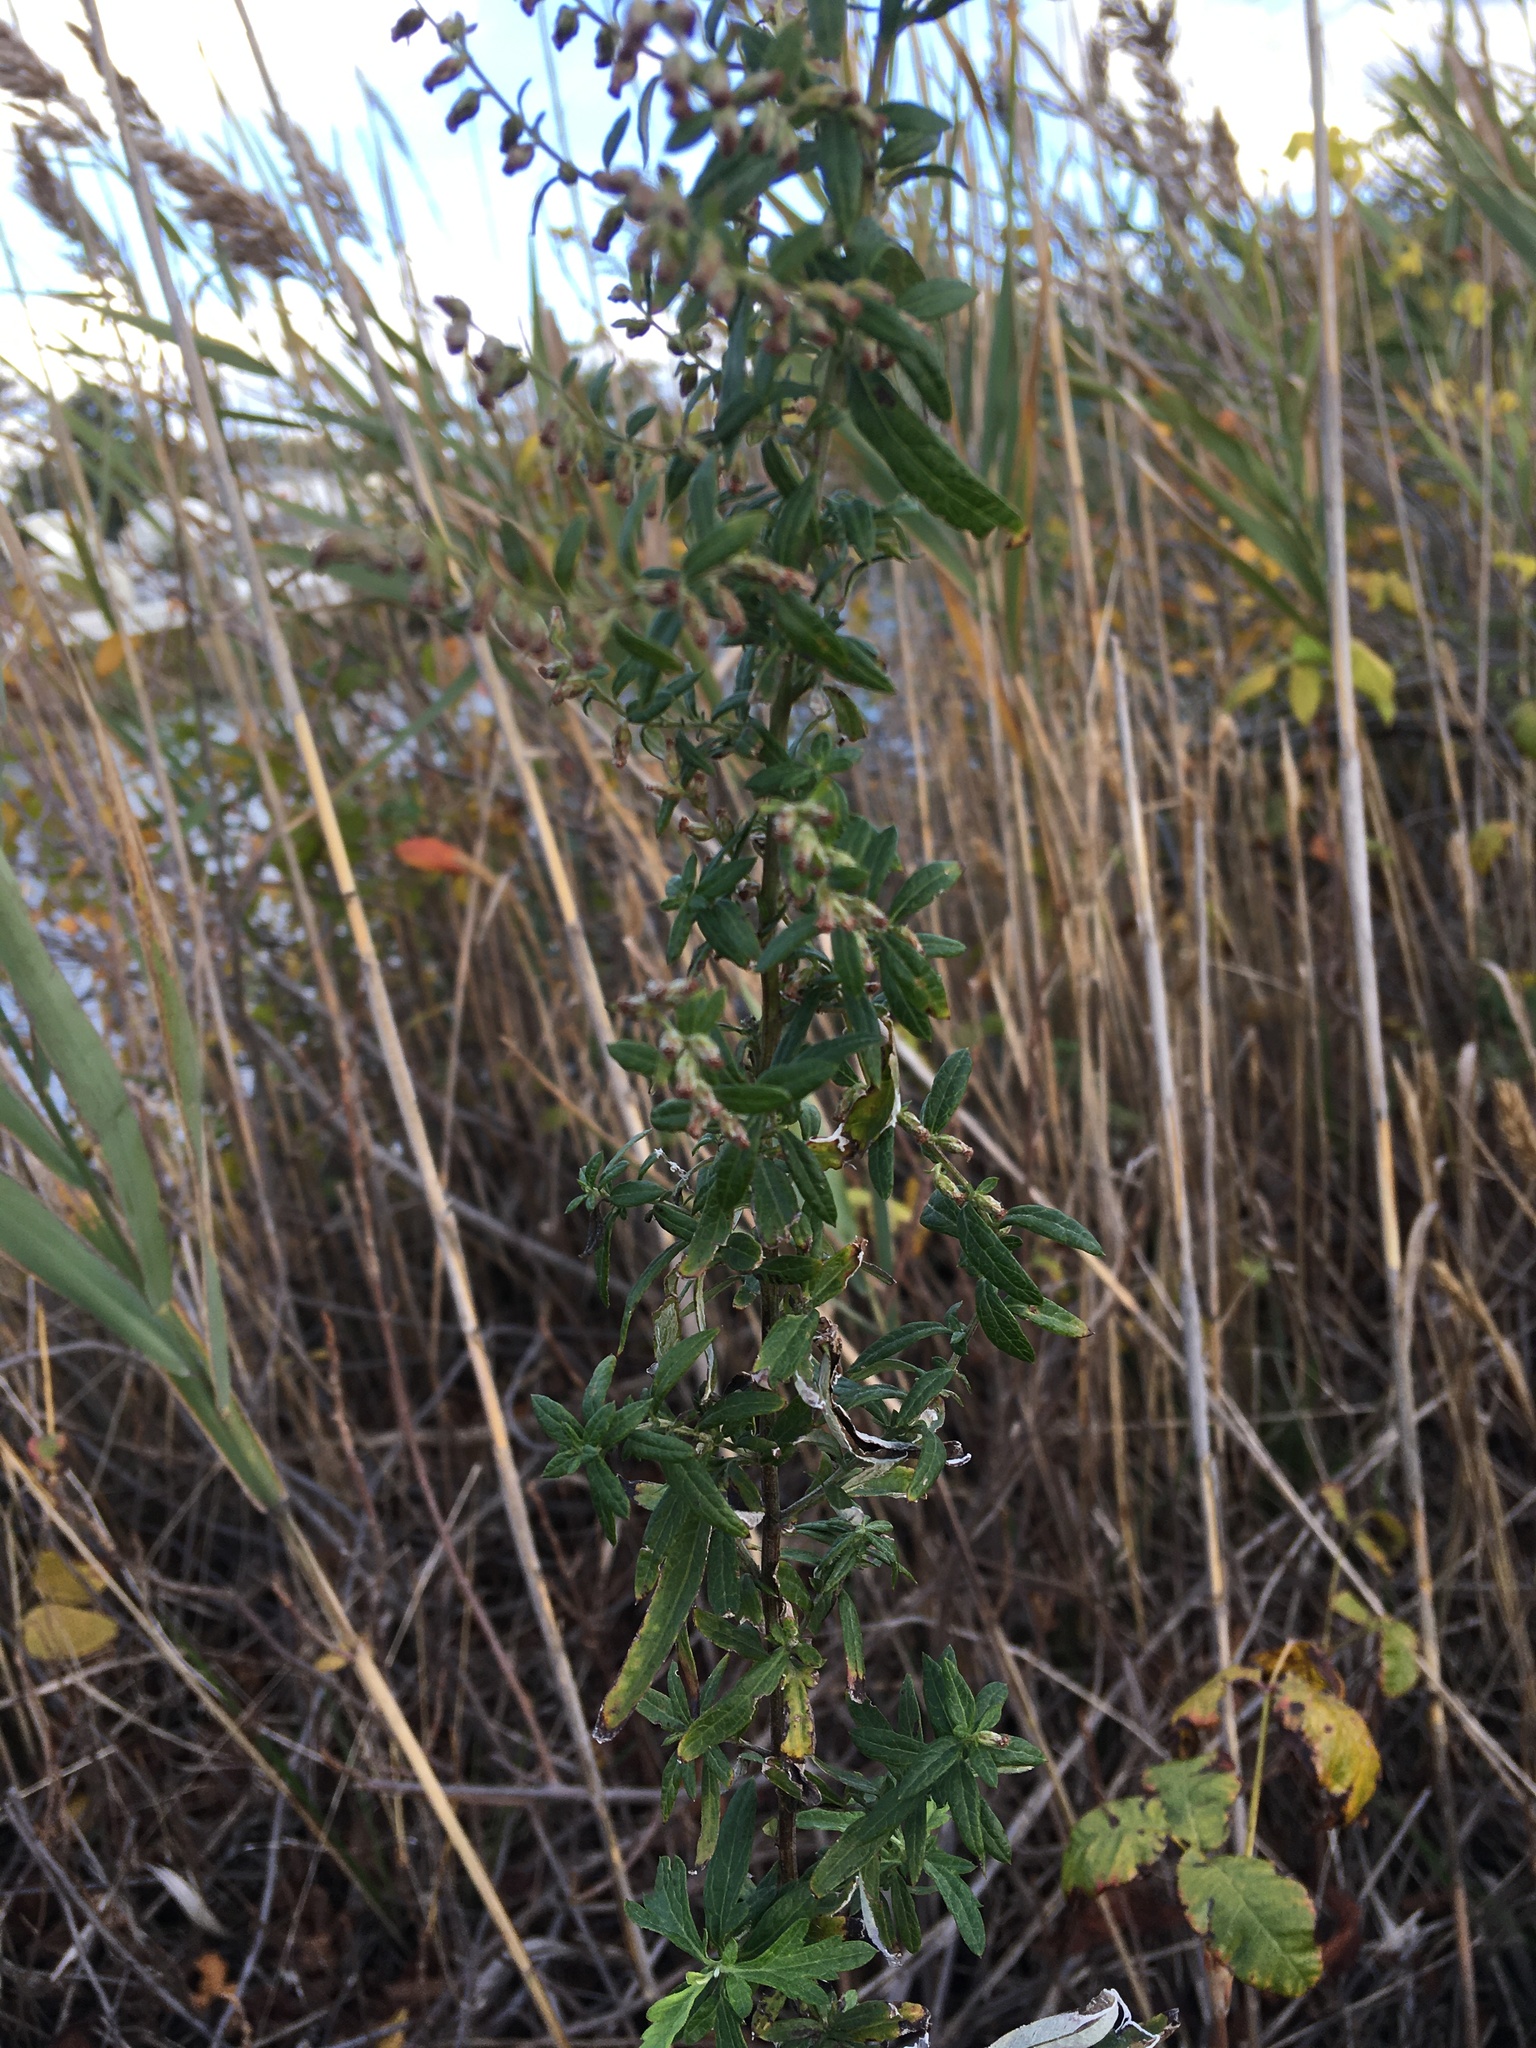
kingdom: Plantae
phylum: Tracheophyta
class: Magnoliopsida
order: Asterales
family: Asteraceae
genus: Artemisia
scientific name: Artemisia vulgaris
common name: Mugwort
